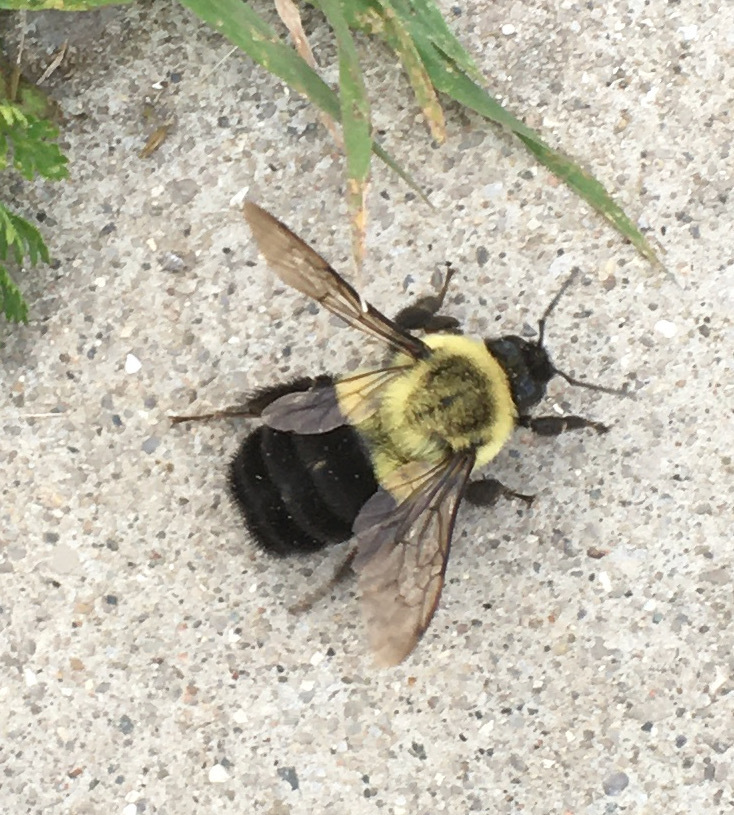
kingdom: Animalia
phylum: Arthropoda
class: Insecta
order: Hymenoptera
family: Apidae
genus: Bombus
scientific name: Bombus impatiens
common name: Common eastern bumble bee
